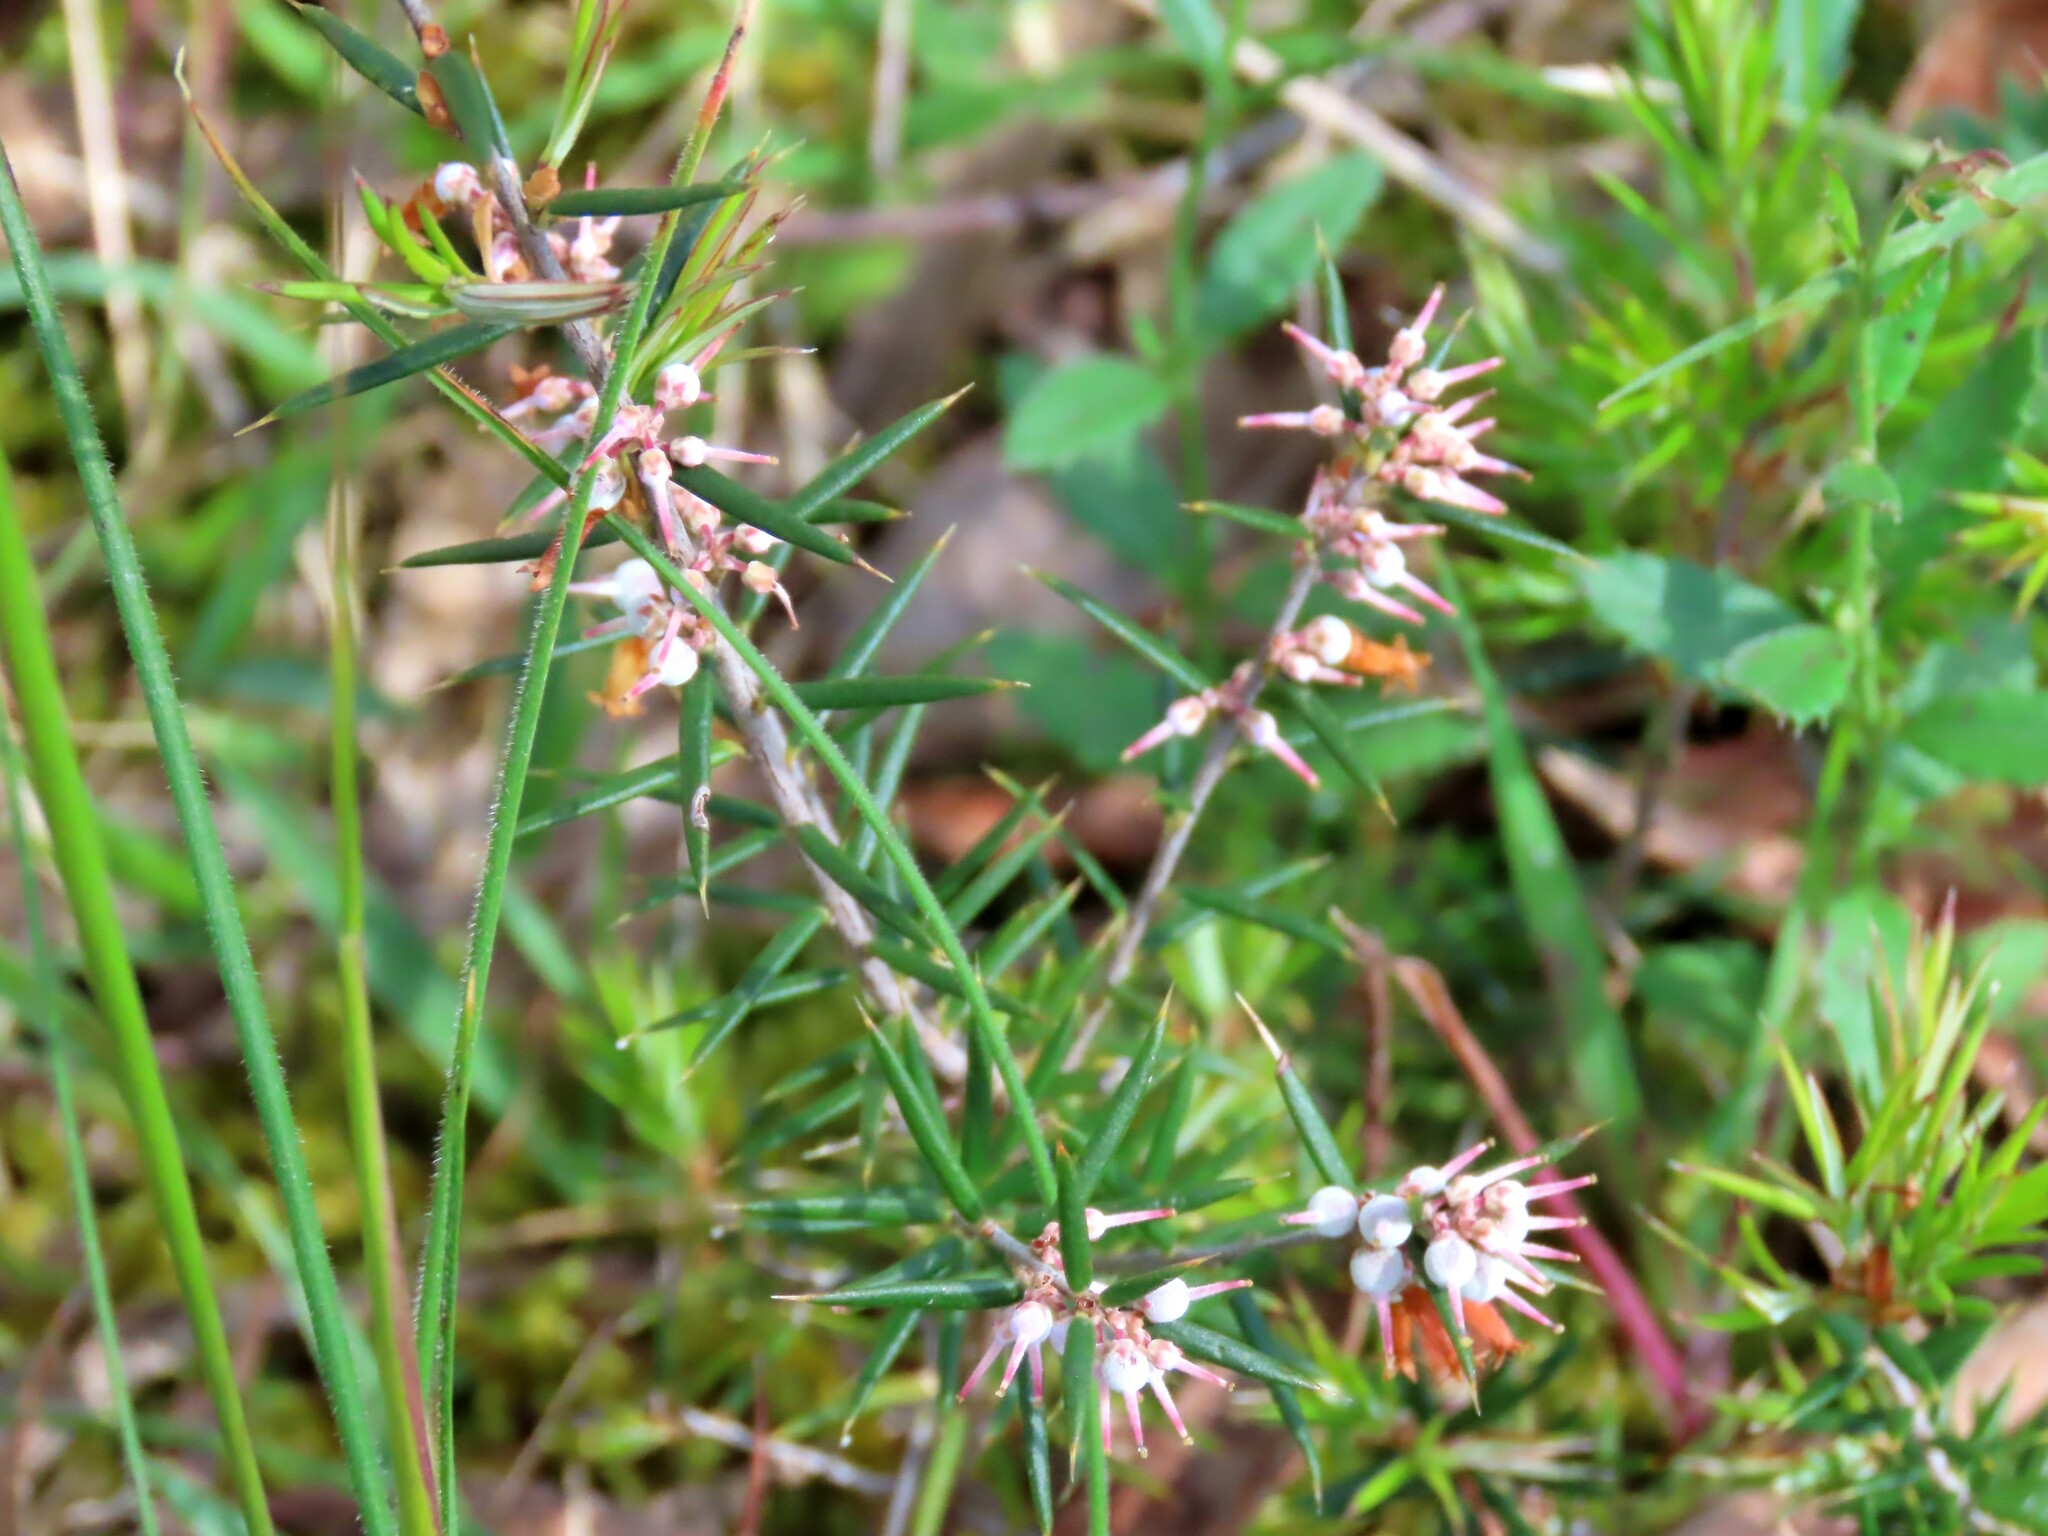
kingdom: Plantae
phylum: Tracheophyta
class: Magnoliopsida
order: Ericales
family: Ericaceae
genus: Lissanthe
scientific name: Lissanthe strigosa
